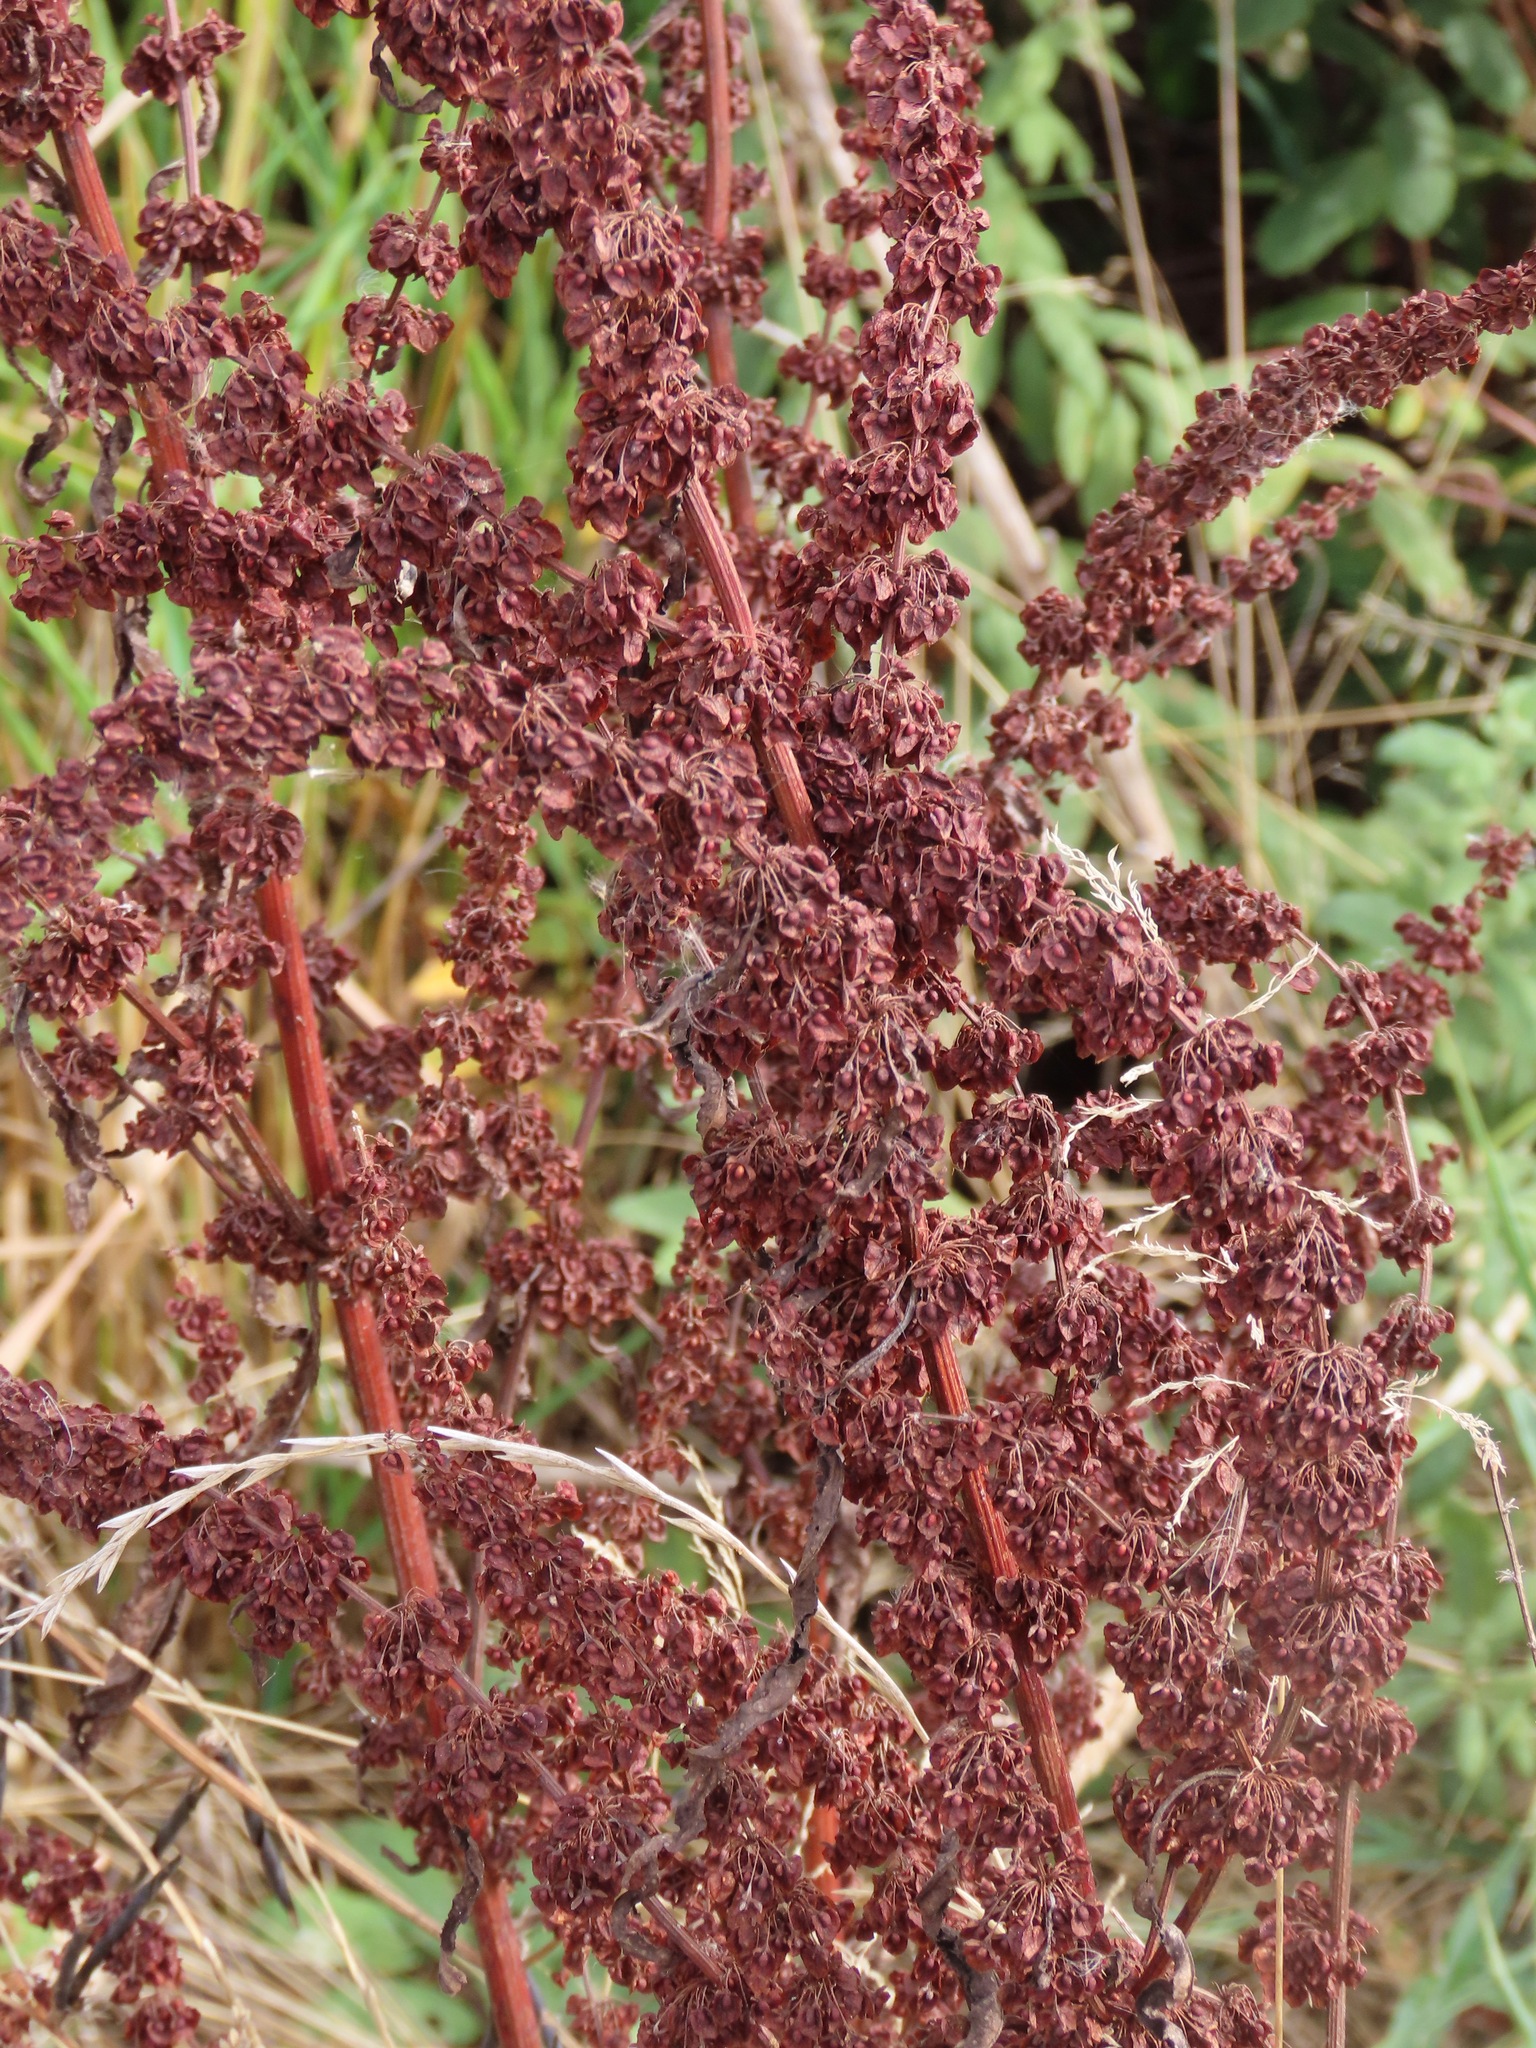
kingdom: Plantae
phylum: Tracheophyta
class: Magnoliopsida
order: Caryophyllales
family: Polygonaceae
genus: Rumex
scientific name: Rumex crispus
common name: Curled dock
